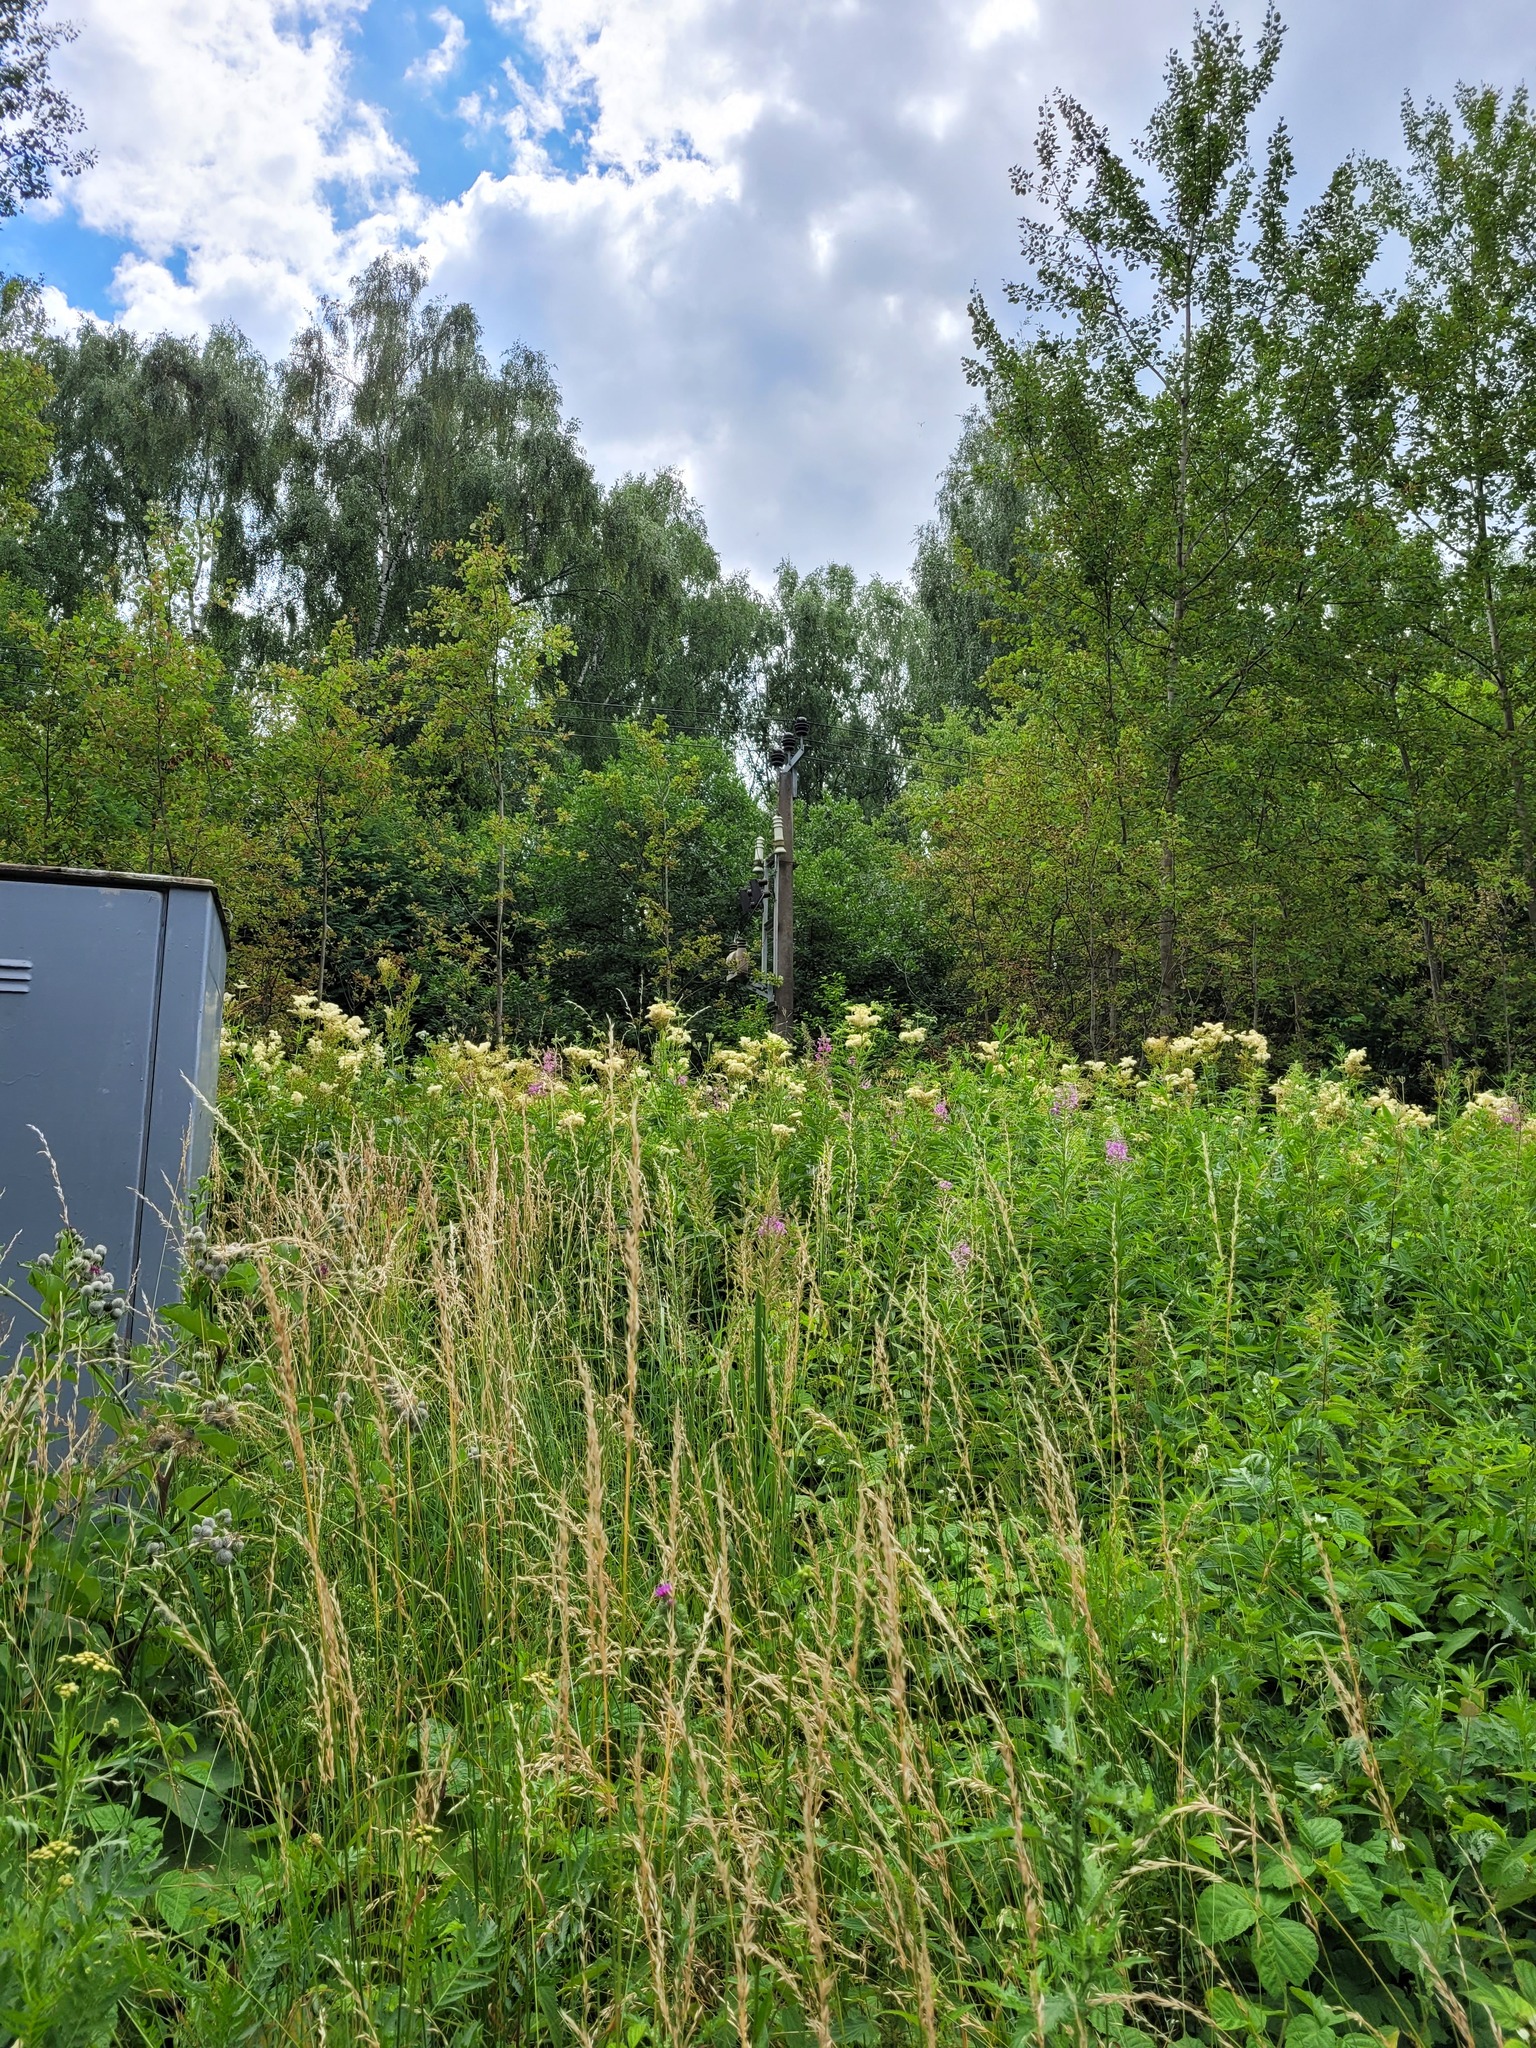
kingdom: Plantae
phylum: Tracheophyta
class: Magnoliopsida
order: Rosales
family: Rosaceae
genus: Filipendula
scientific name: Filipendula ulmaria
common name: Meadowsweet
